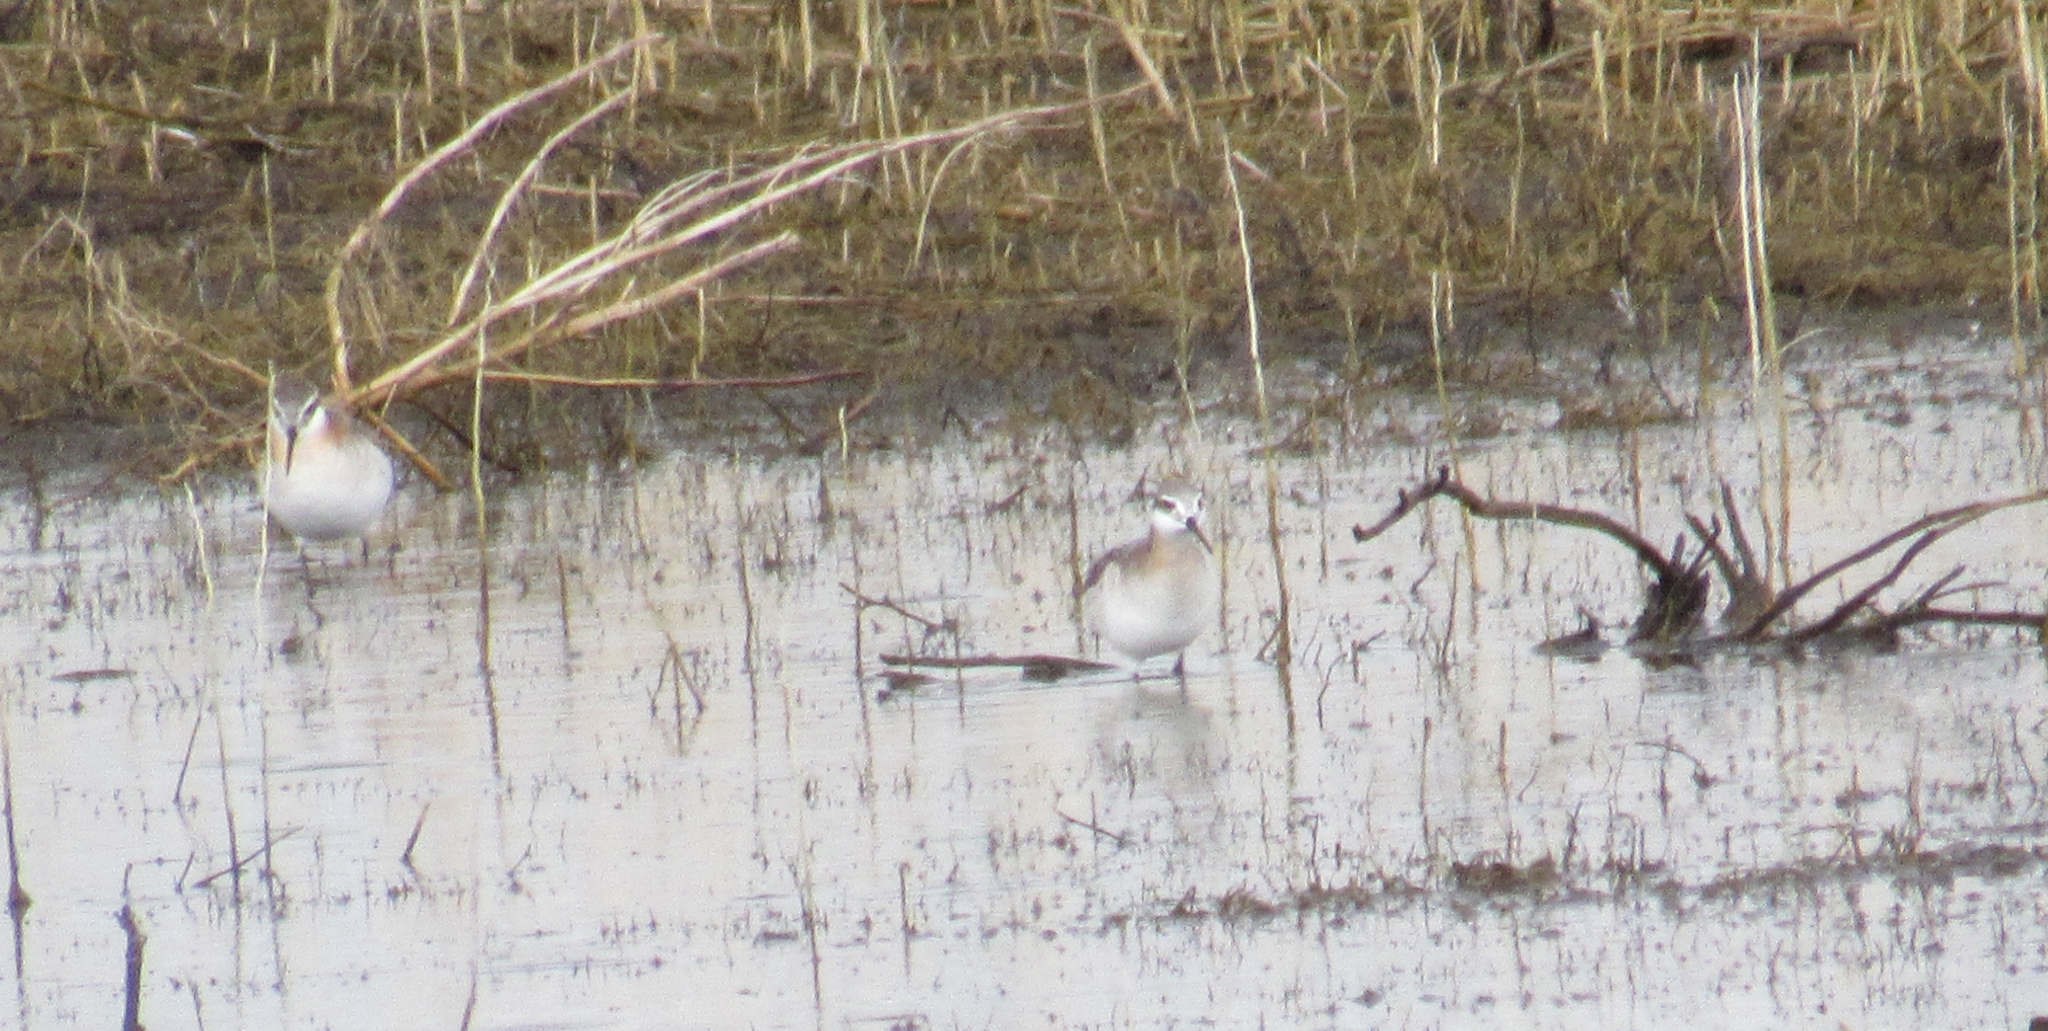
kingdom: Animalia
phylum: Chordata
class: Aves
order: Charadriiformes
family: Scolopacidae
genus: Phalaropus
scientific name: Phalaropus tricolor
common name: Wilson's phalarope
